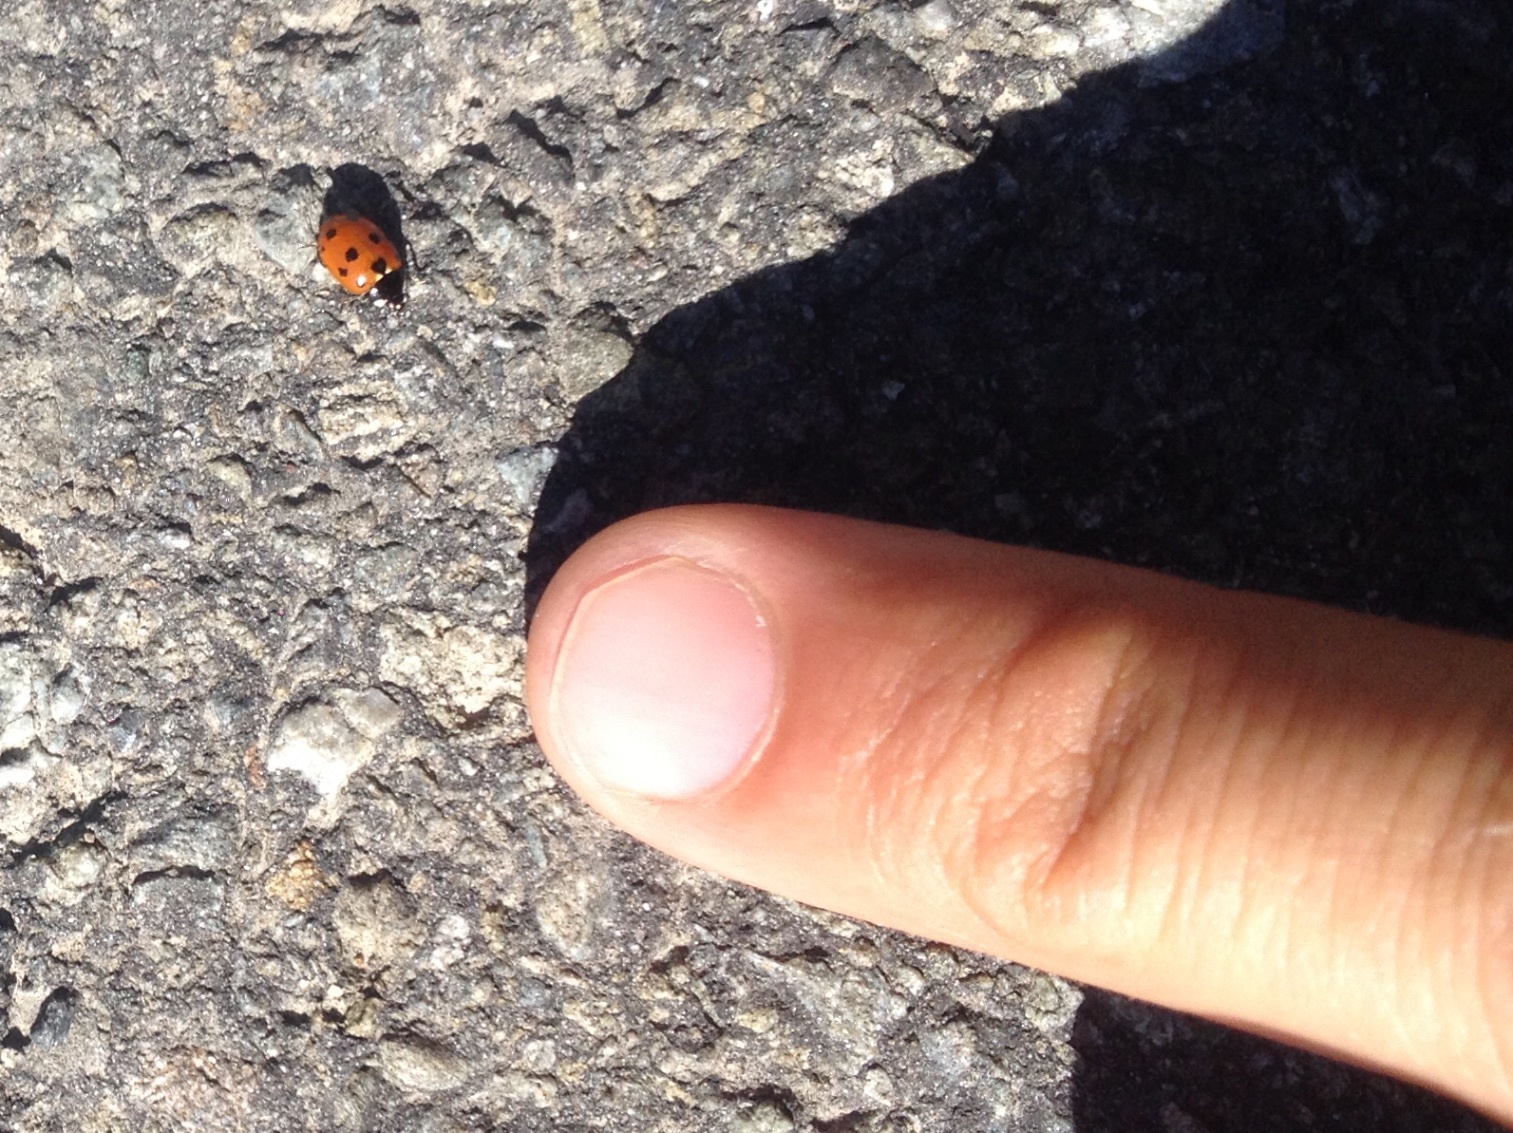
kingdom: Animalia
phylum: Arthropoda
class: Insecta
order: Coleoptera
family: Coccinellidae
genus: Coccinella
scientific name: Coccinella undecimpunctata
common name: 11-spot ladybird
